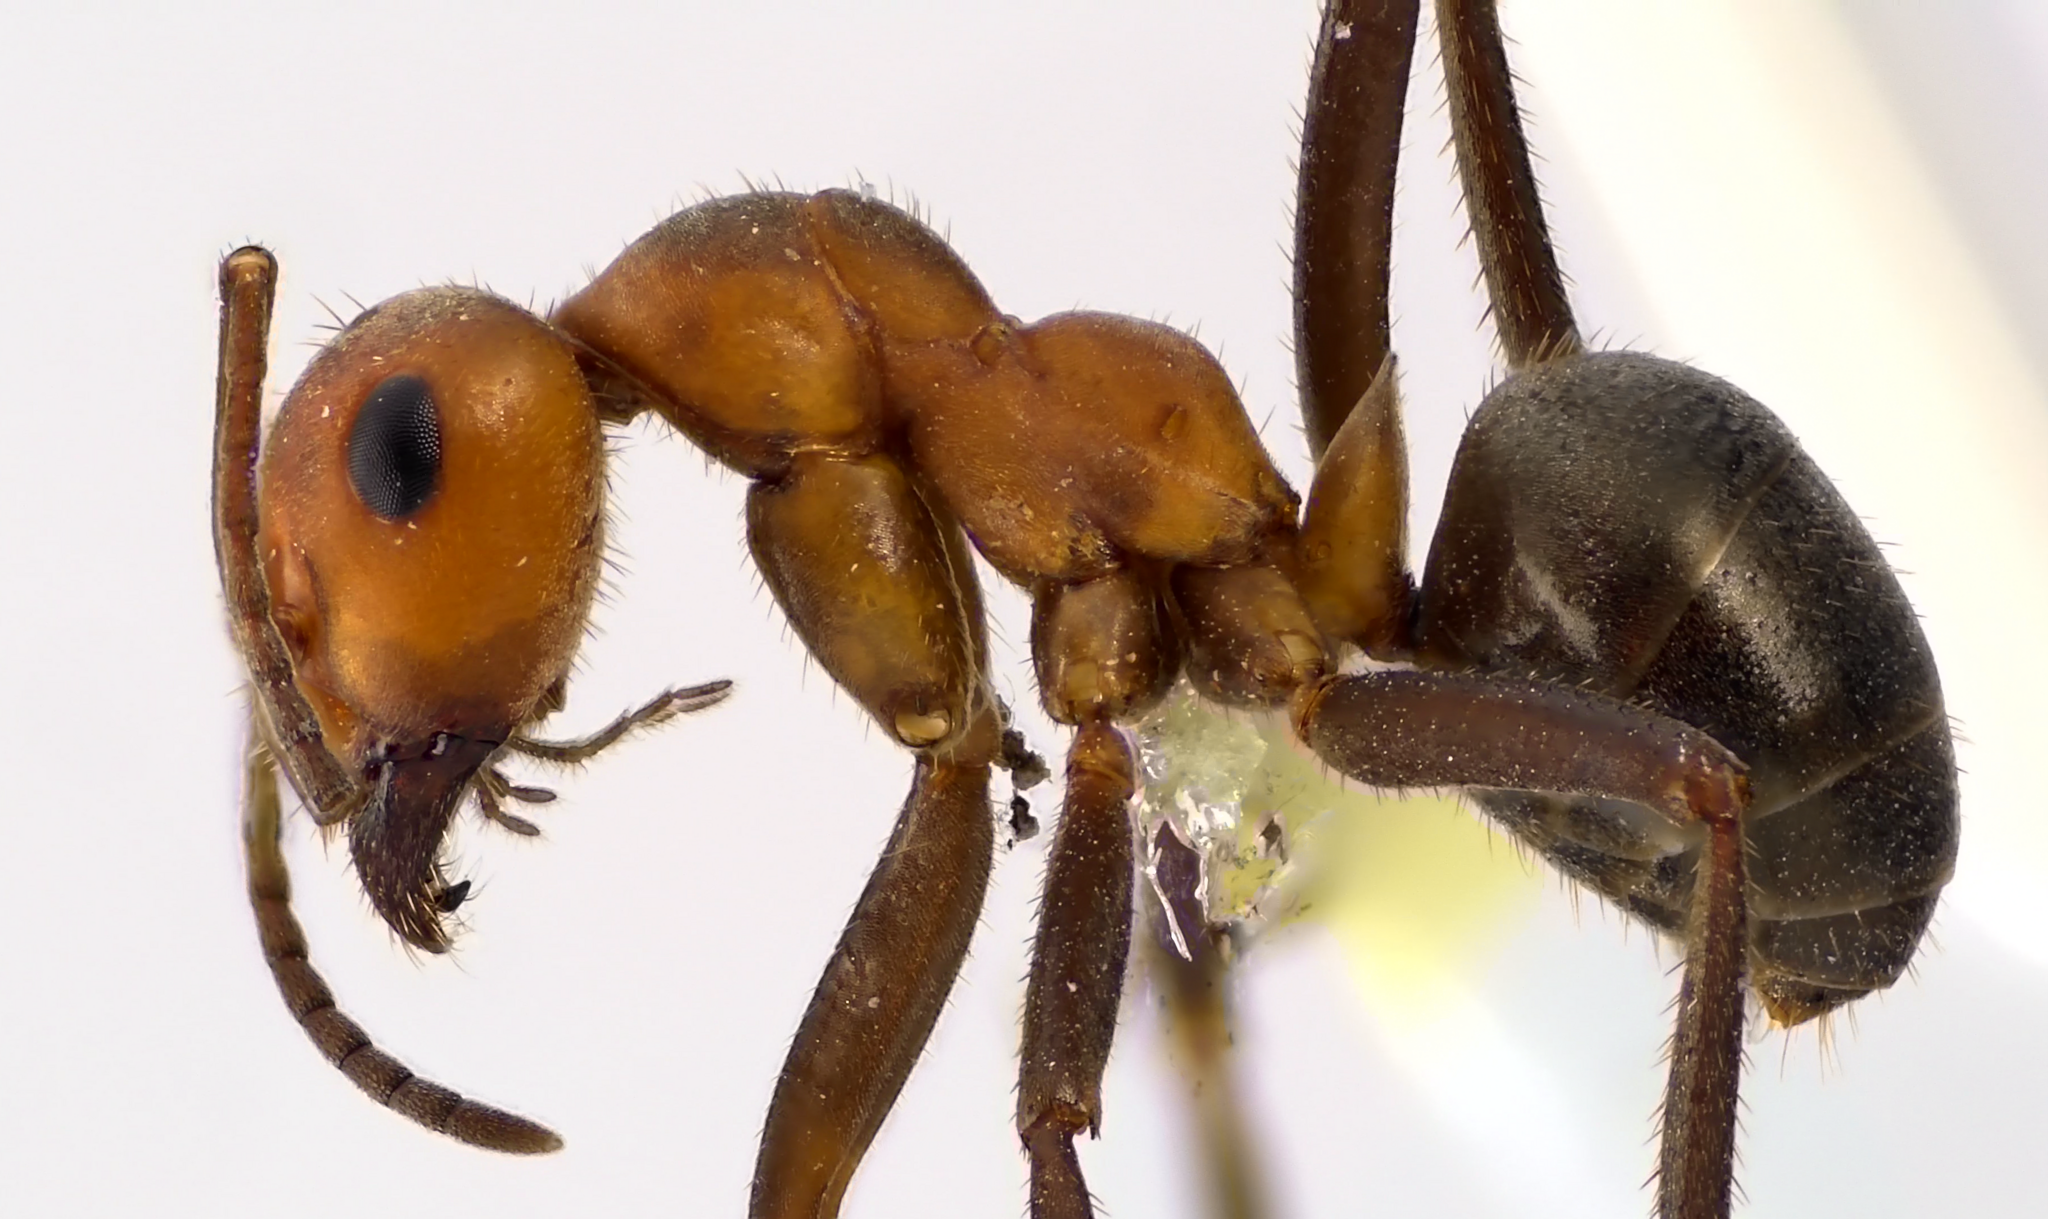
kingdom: Animalia
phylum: Arthropoda
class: Insecta
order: Hymenoptera
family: Formicidae
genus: Formica
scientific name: Formica obscuriventris
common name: Northern red wood ant
